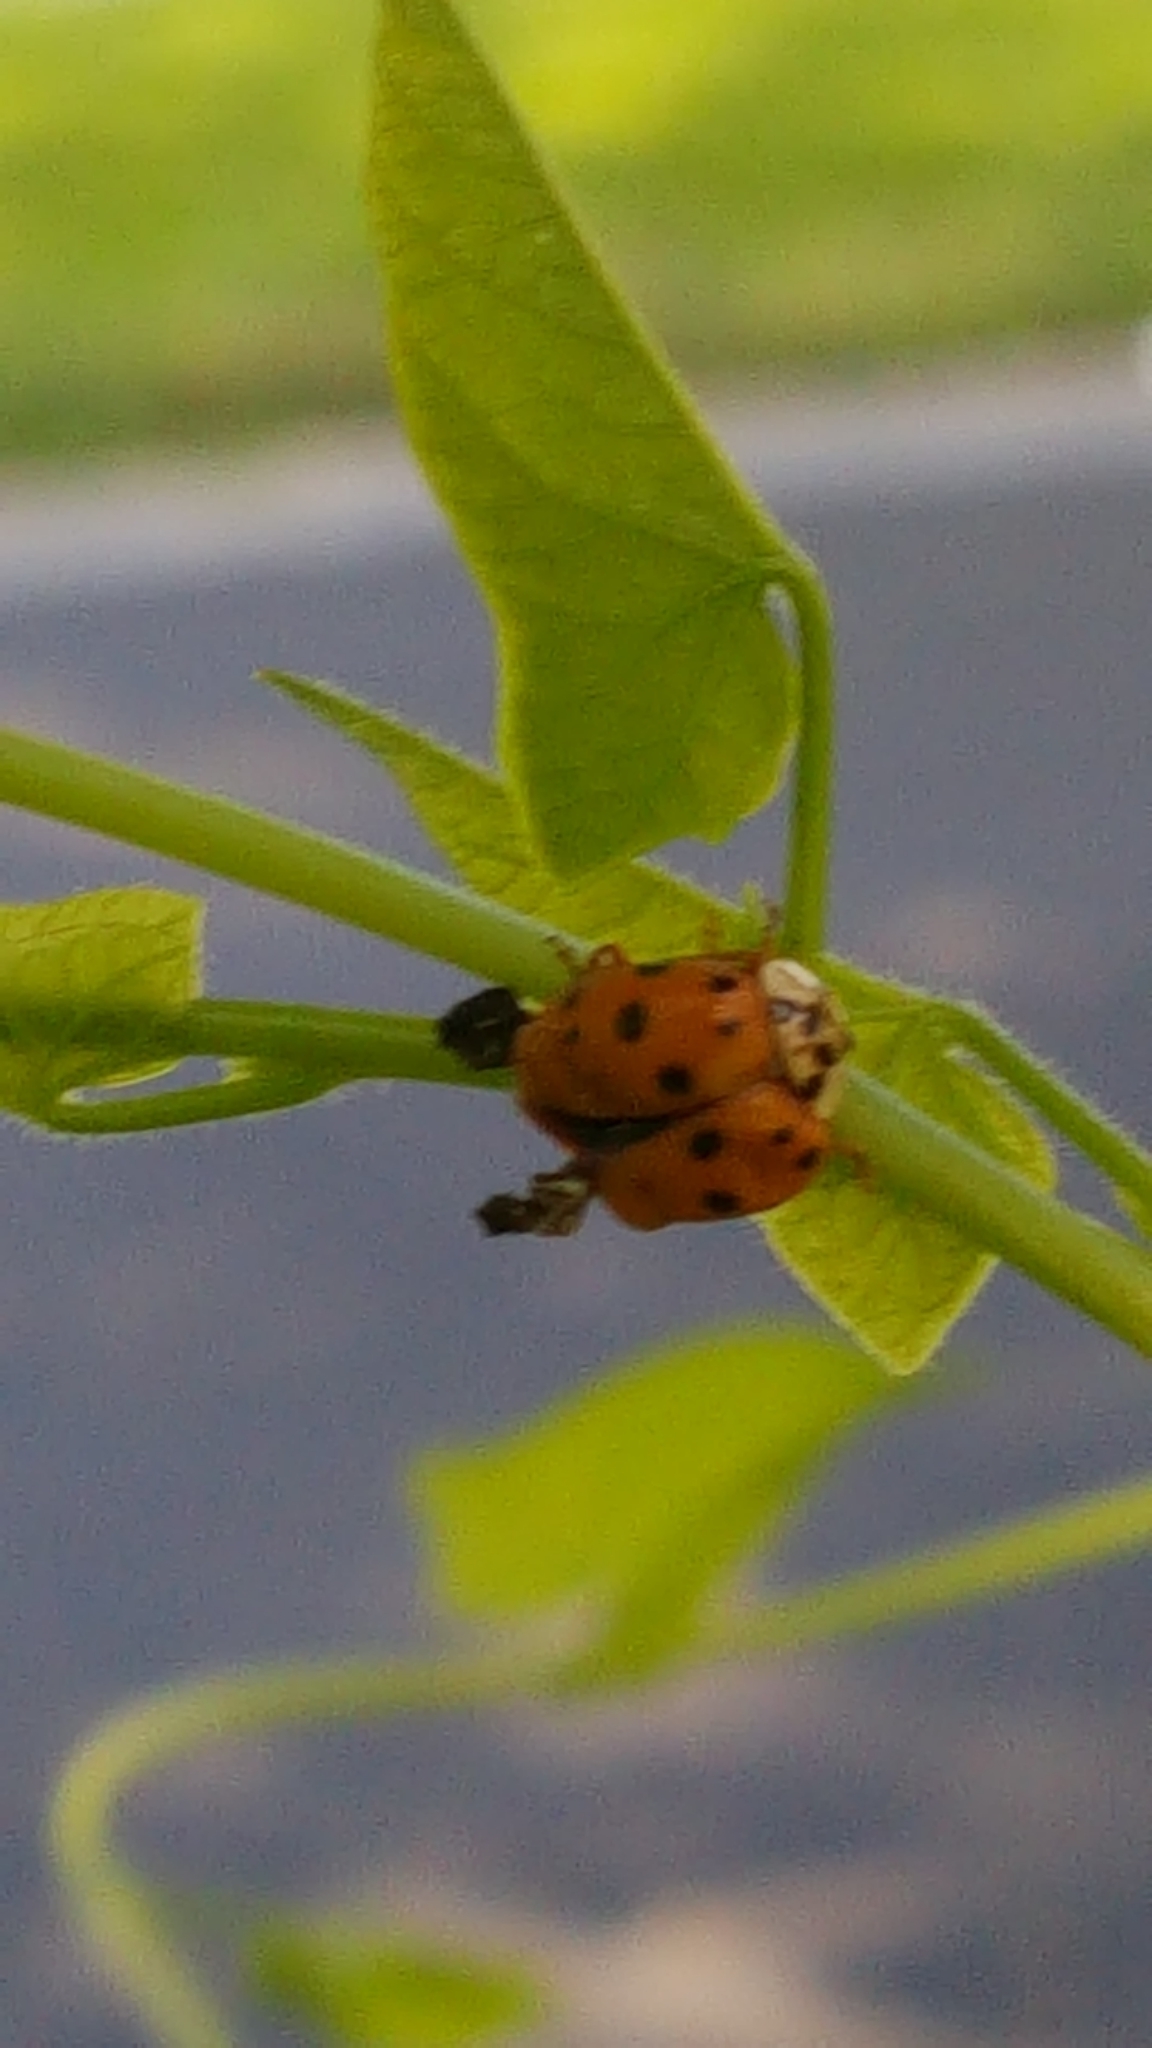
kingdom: Animalia
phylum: Arthropoda
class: Insecta
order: Coleoptera
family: Coccinellidae
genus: Harmonia
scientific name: Harmonia axyridis
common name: Harlequin ladybird
